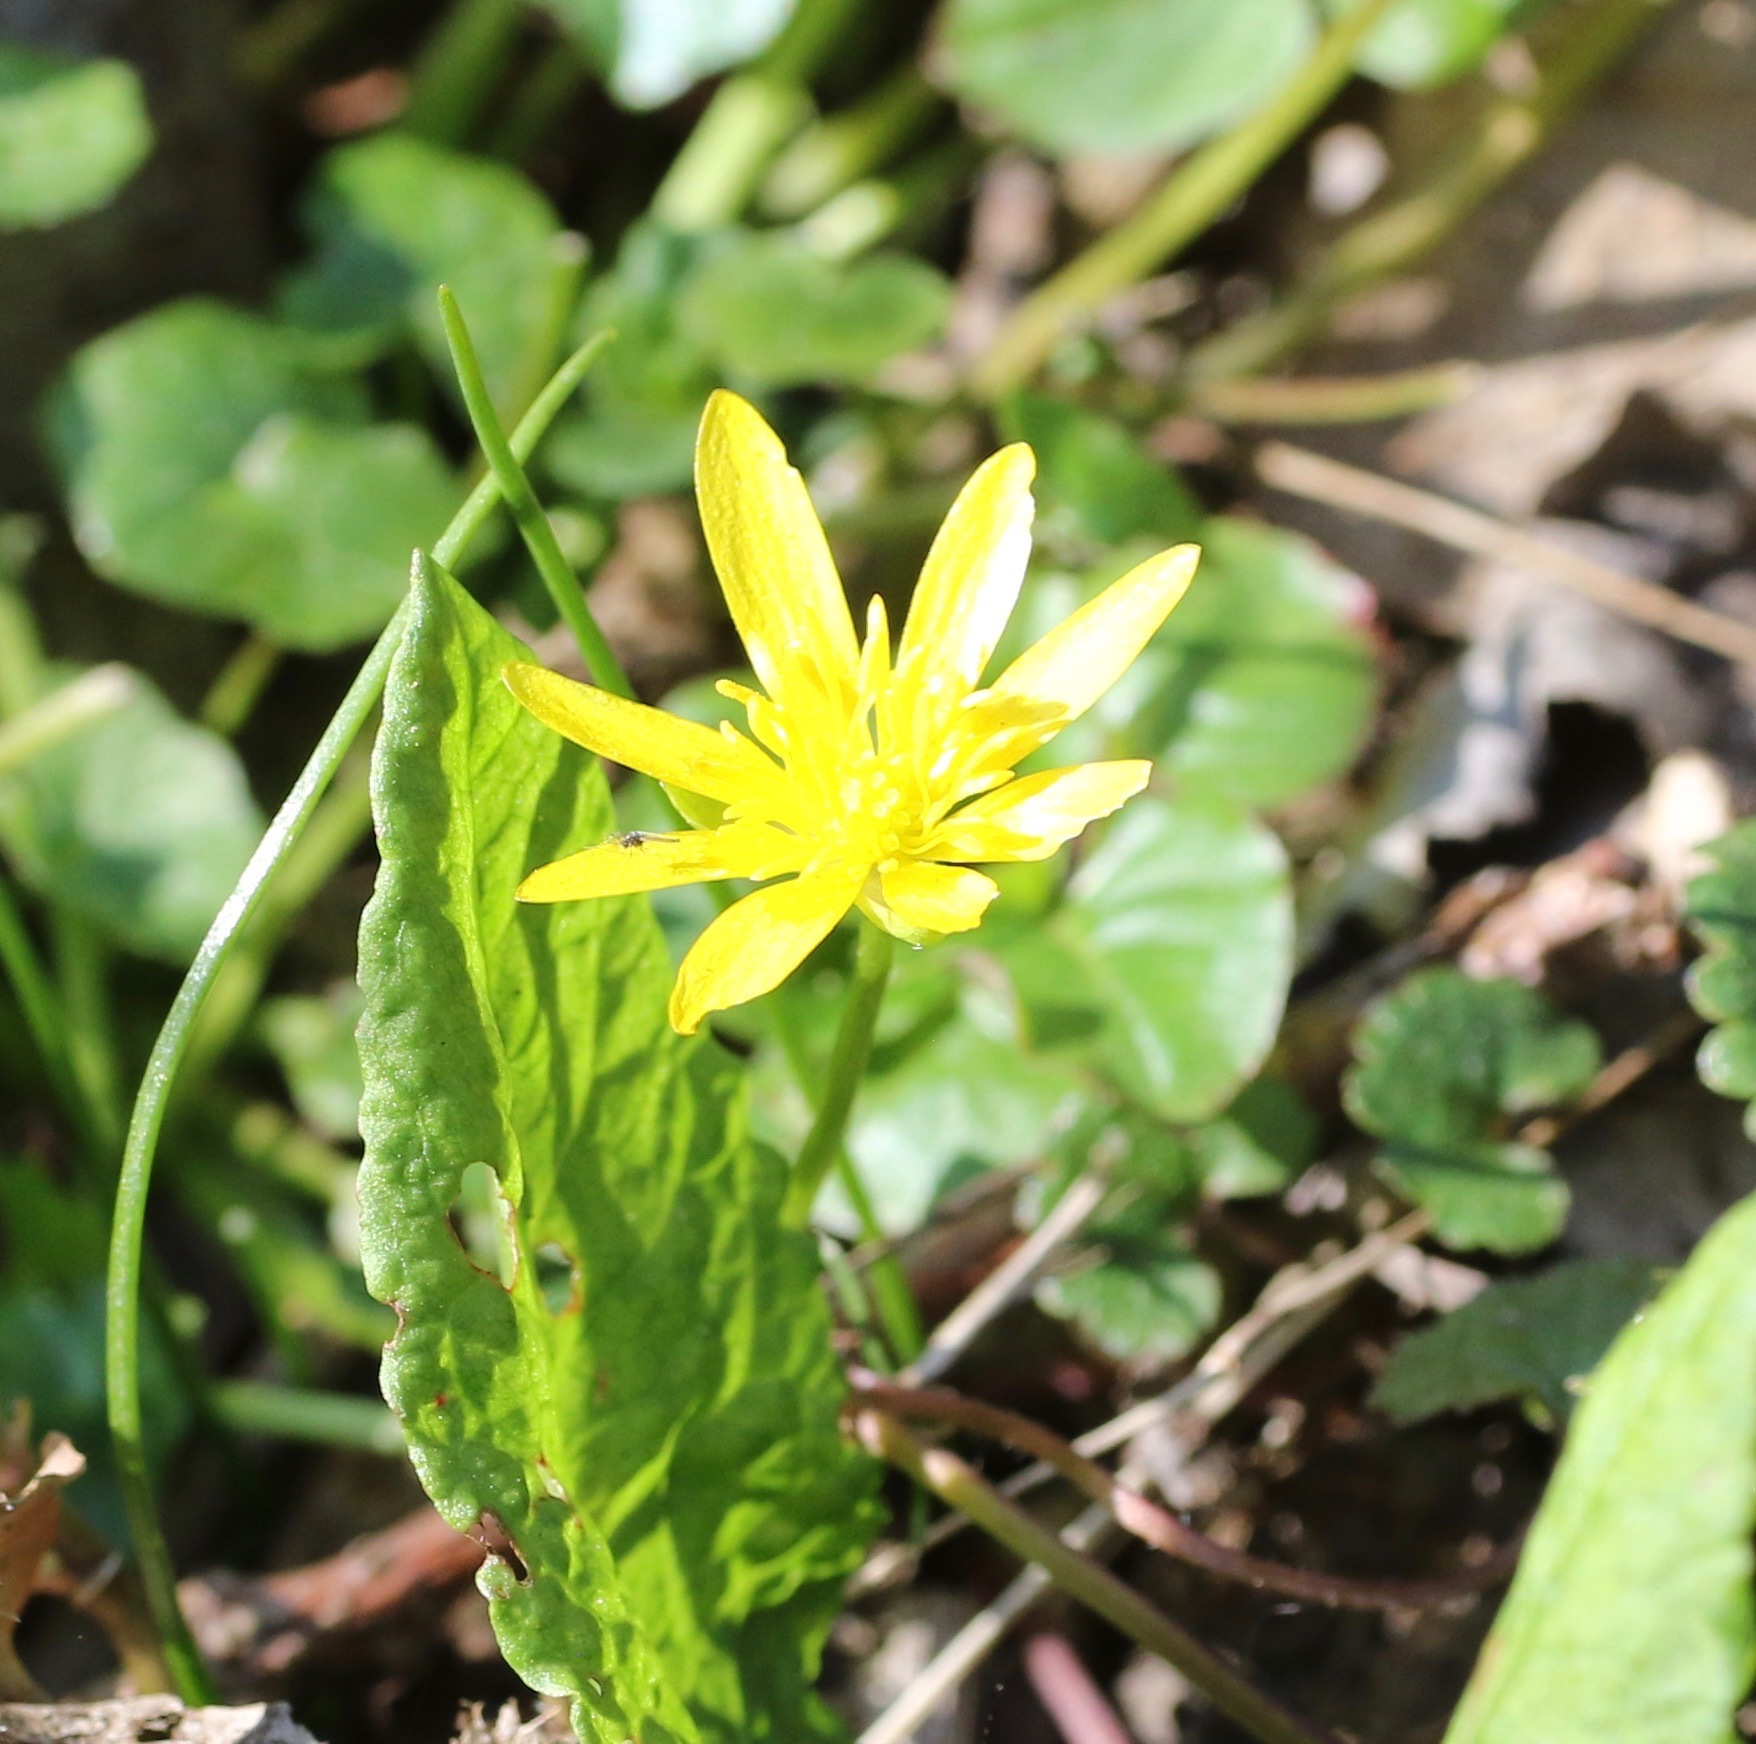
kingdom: Plantae
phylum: Tracheophyta
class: Magnoliopsida
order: Ranunculales
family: Ranunculaceae
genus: Ficaria
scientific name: Ficaria verna
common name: Lesser celandine
